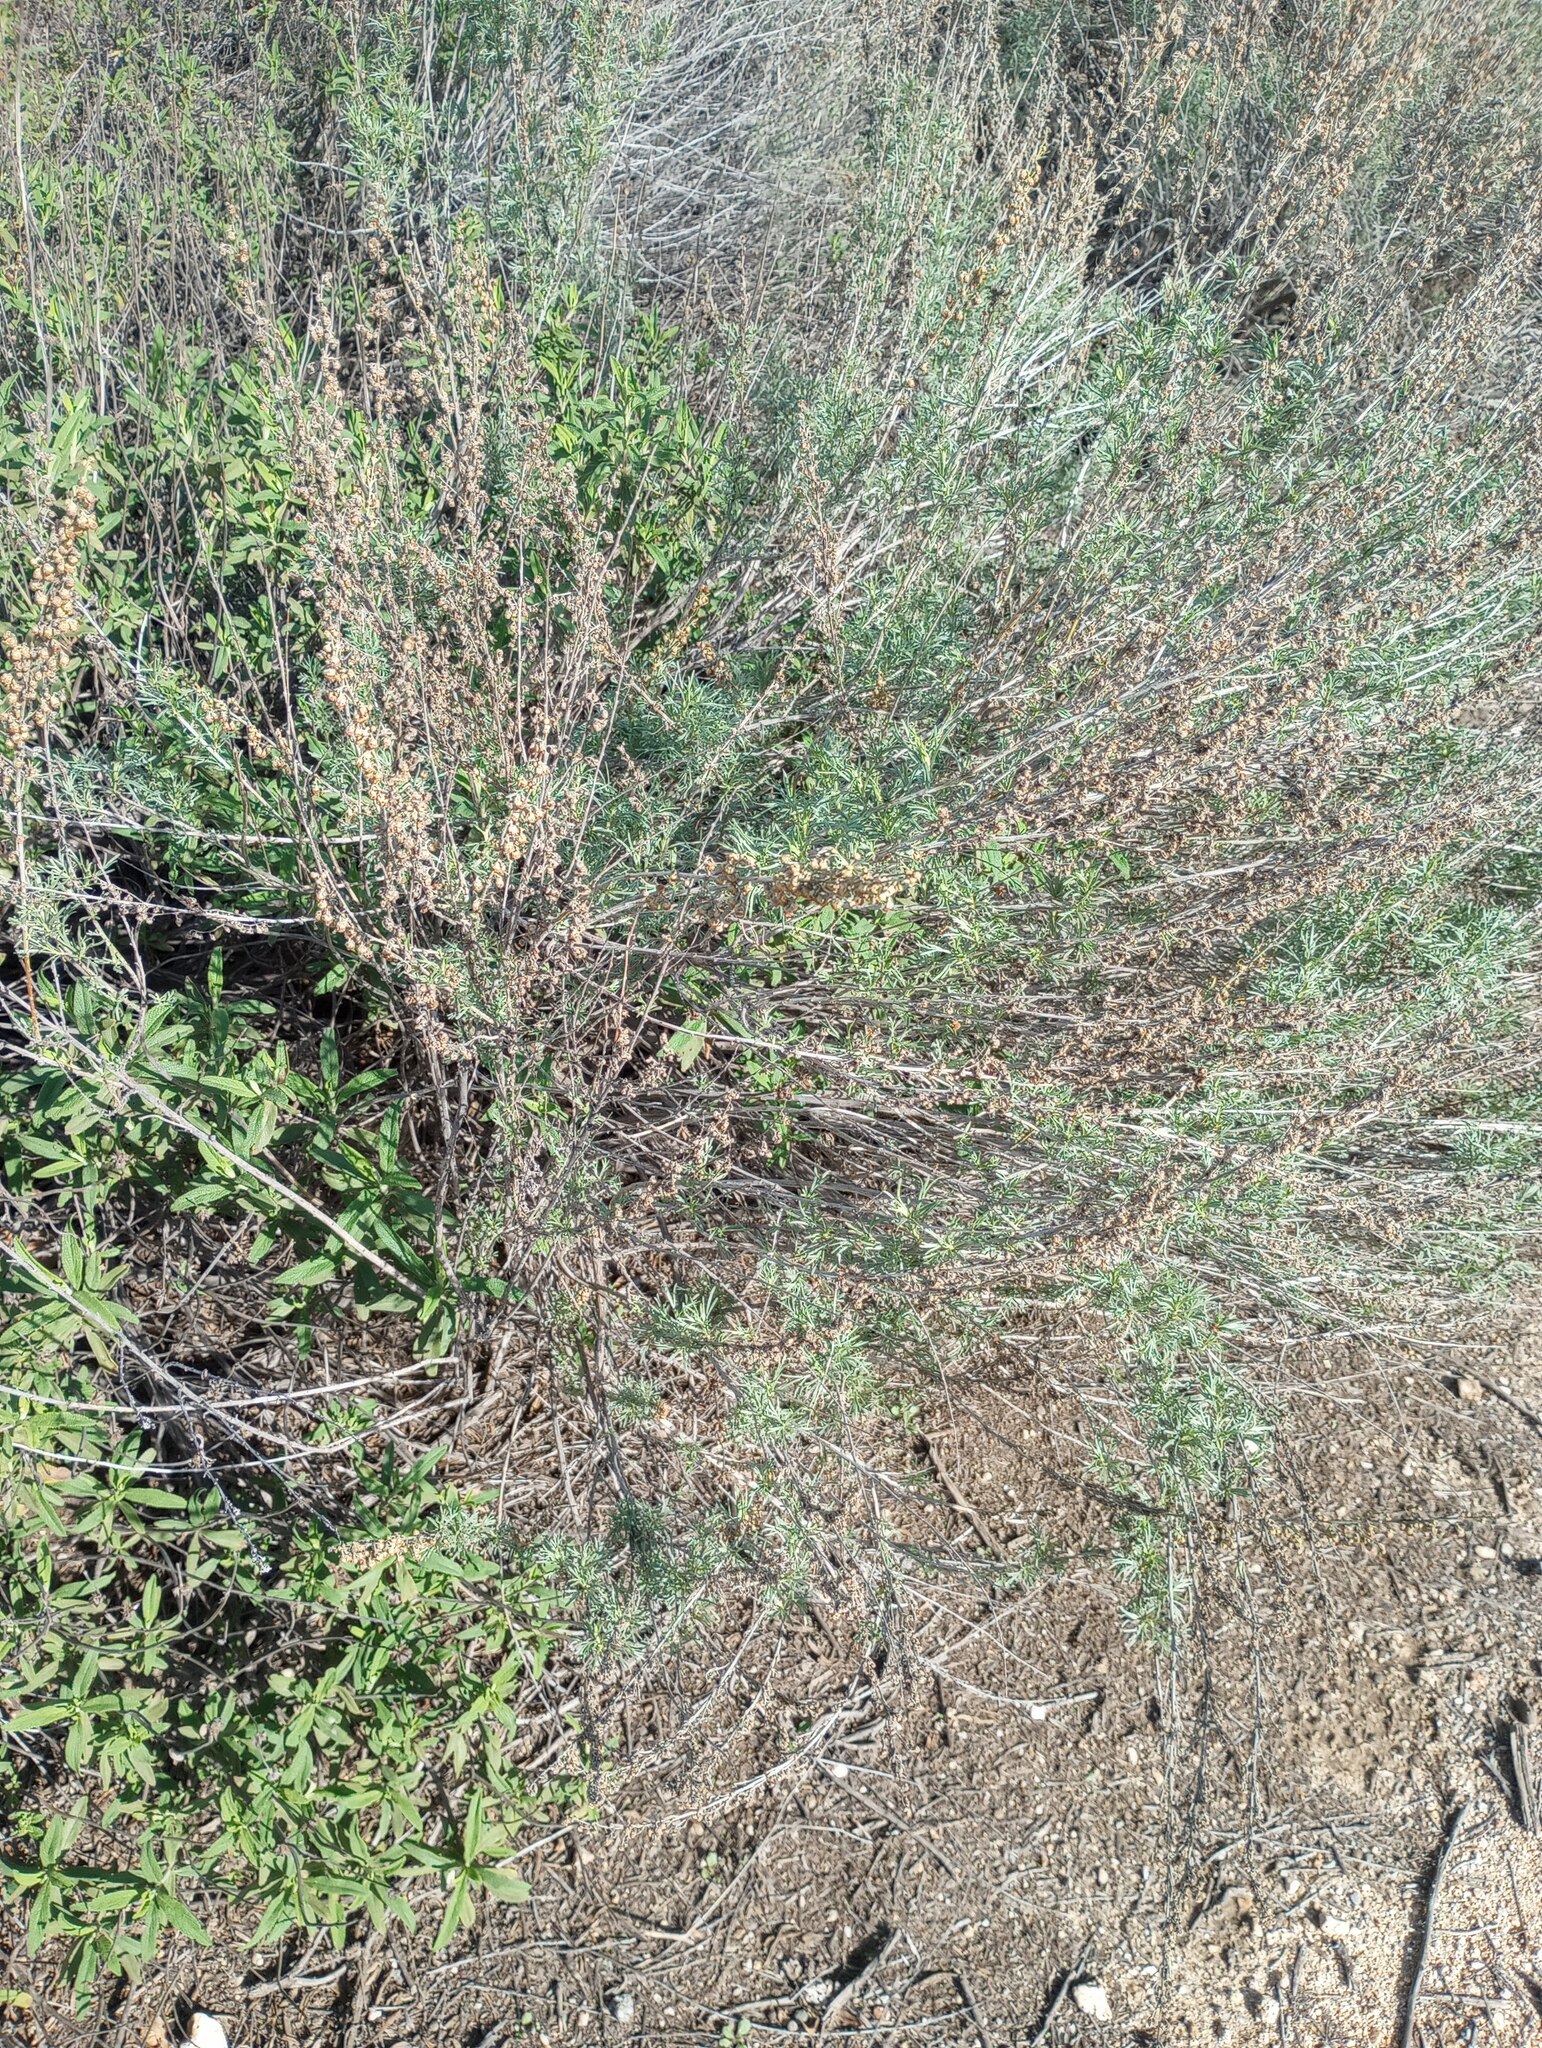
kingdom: Plantae
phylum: Tracheophyta
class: Magnoliopsida
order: Asterales
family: Asteraceae
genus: Artemisia
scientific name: Artemisia californica
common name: California sagebrush
